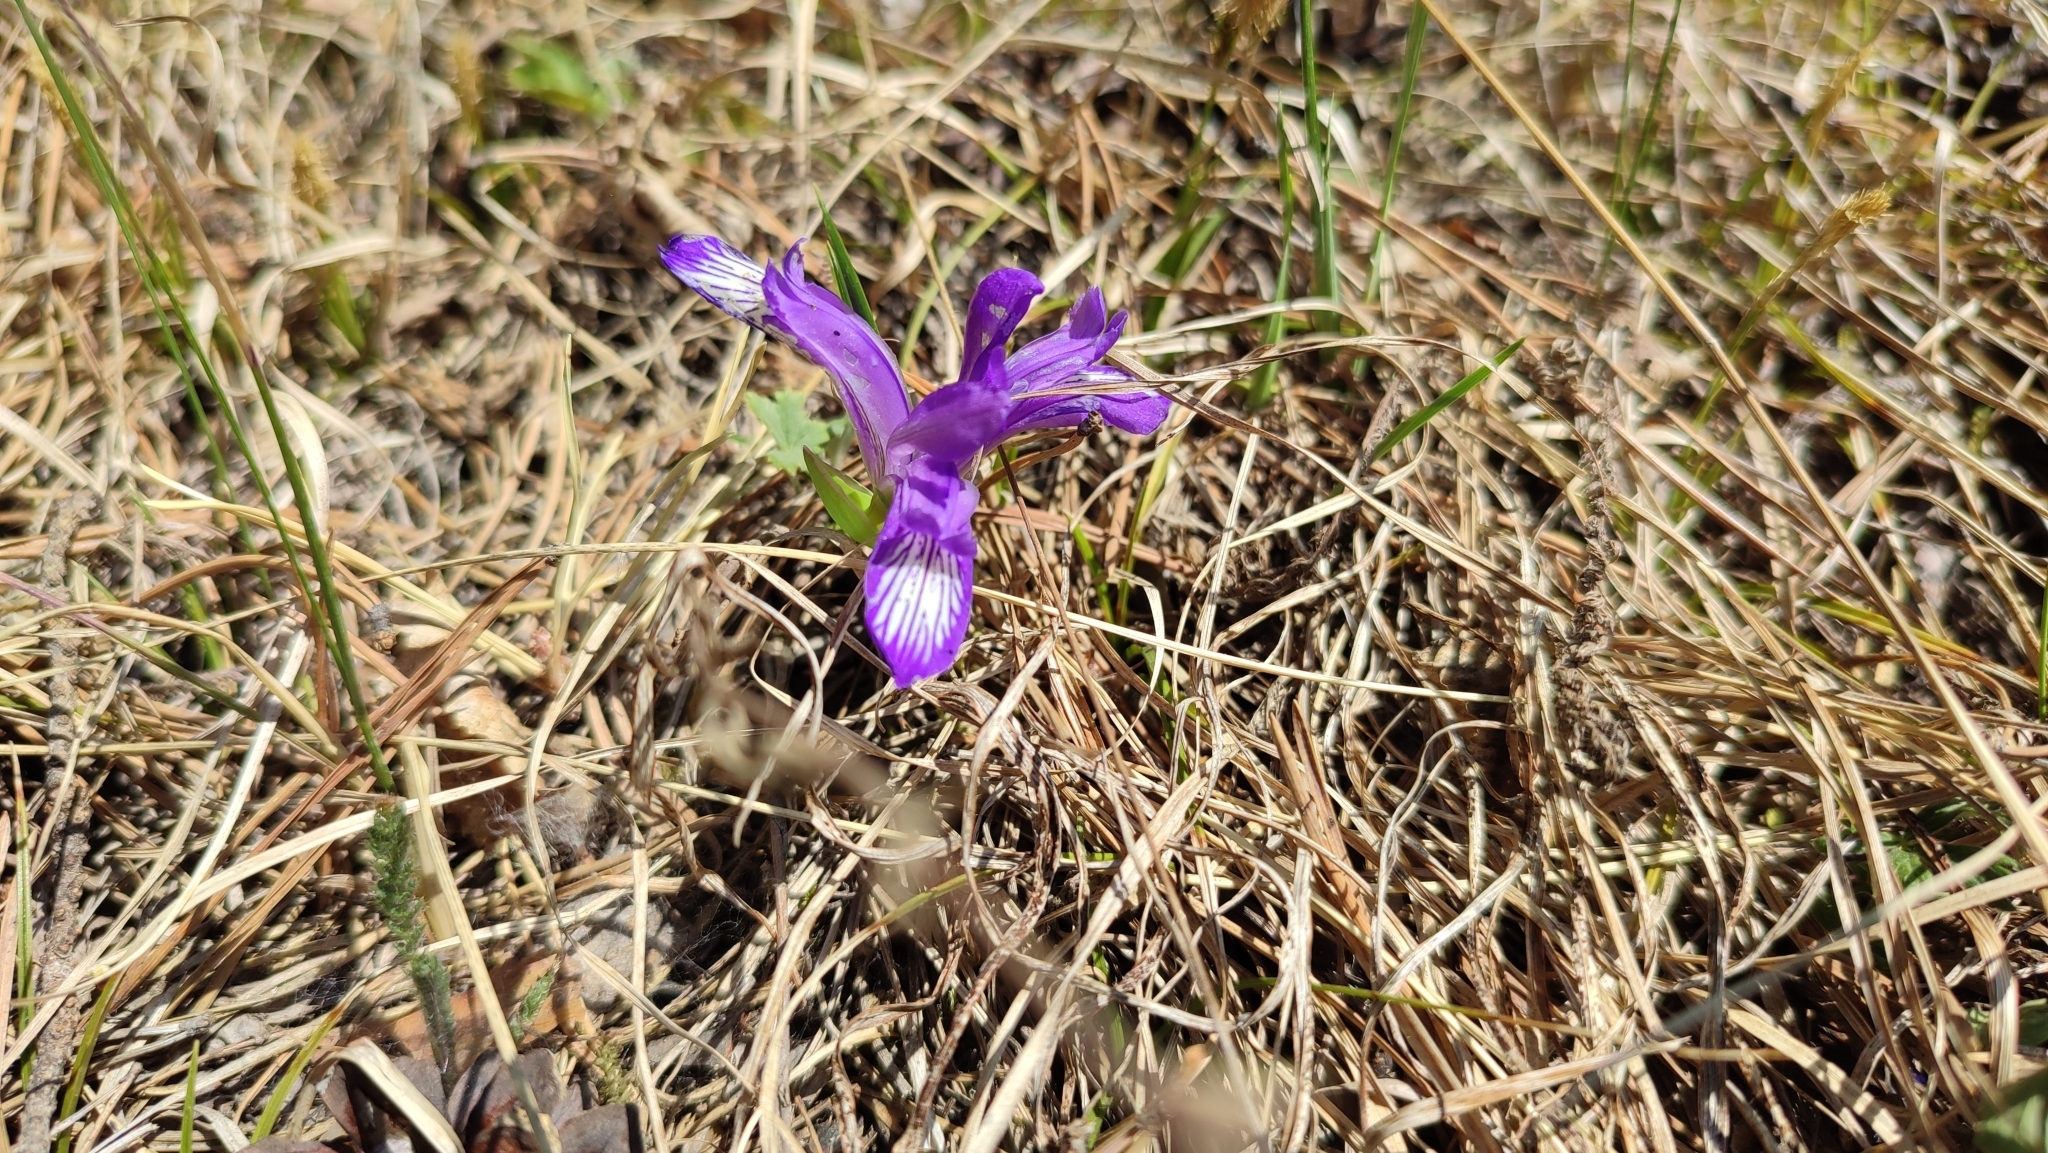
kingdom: Plantae
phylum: Tracheophyta
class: Liliopsida
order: Asparagales
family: Iridaceae
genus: Iris
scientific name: Iris ruthenica
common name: Purple-bract iris
